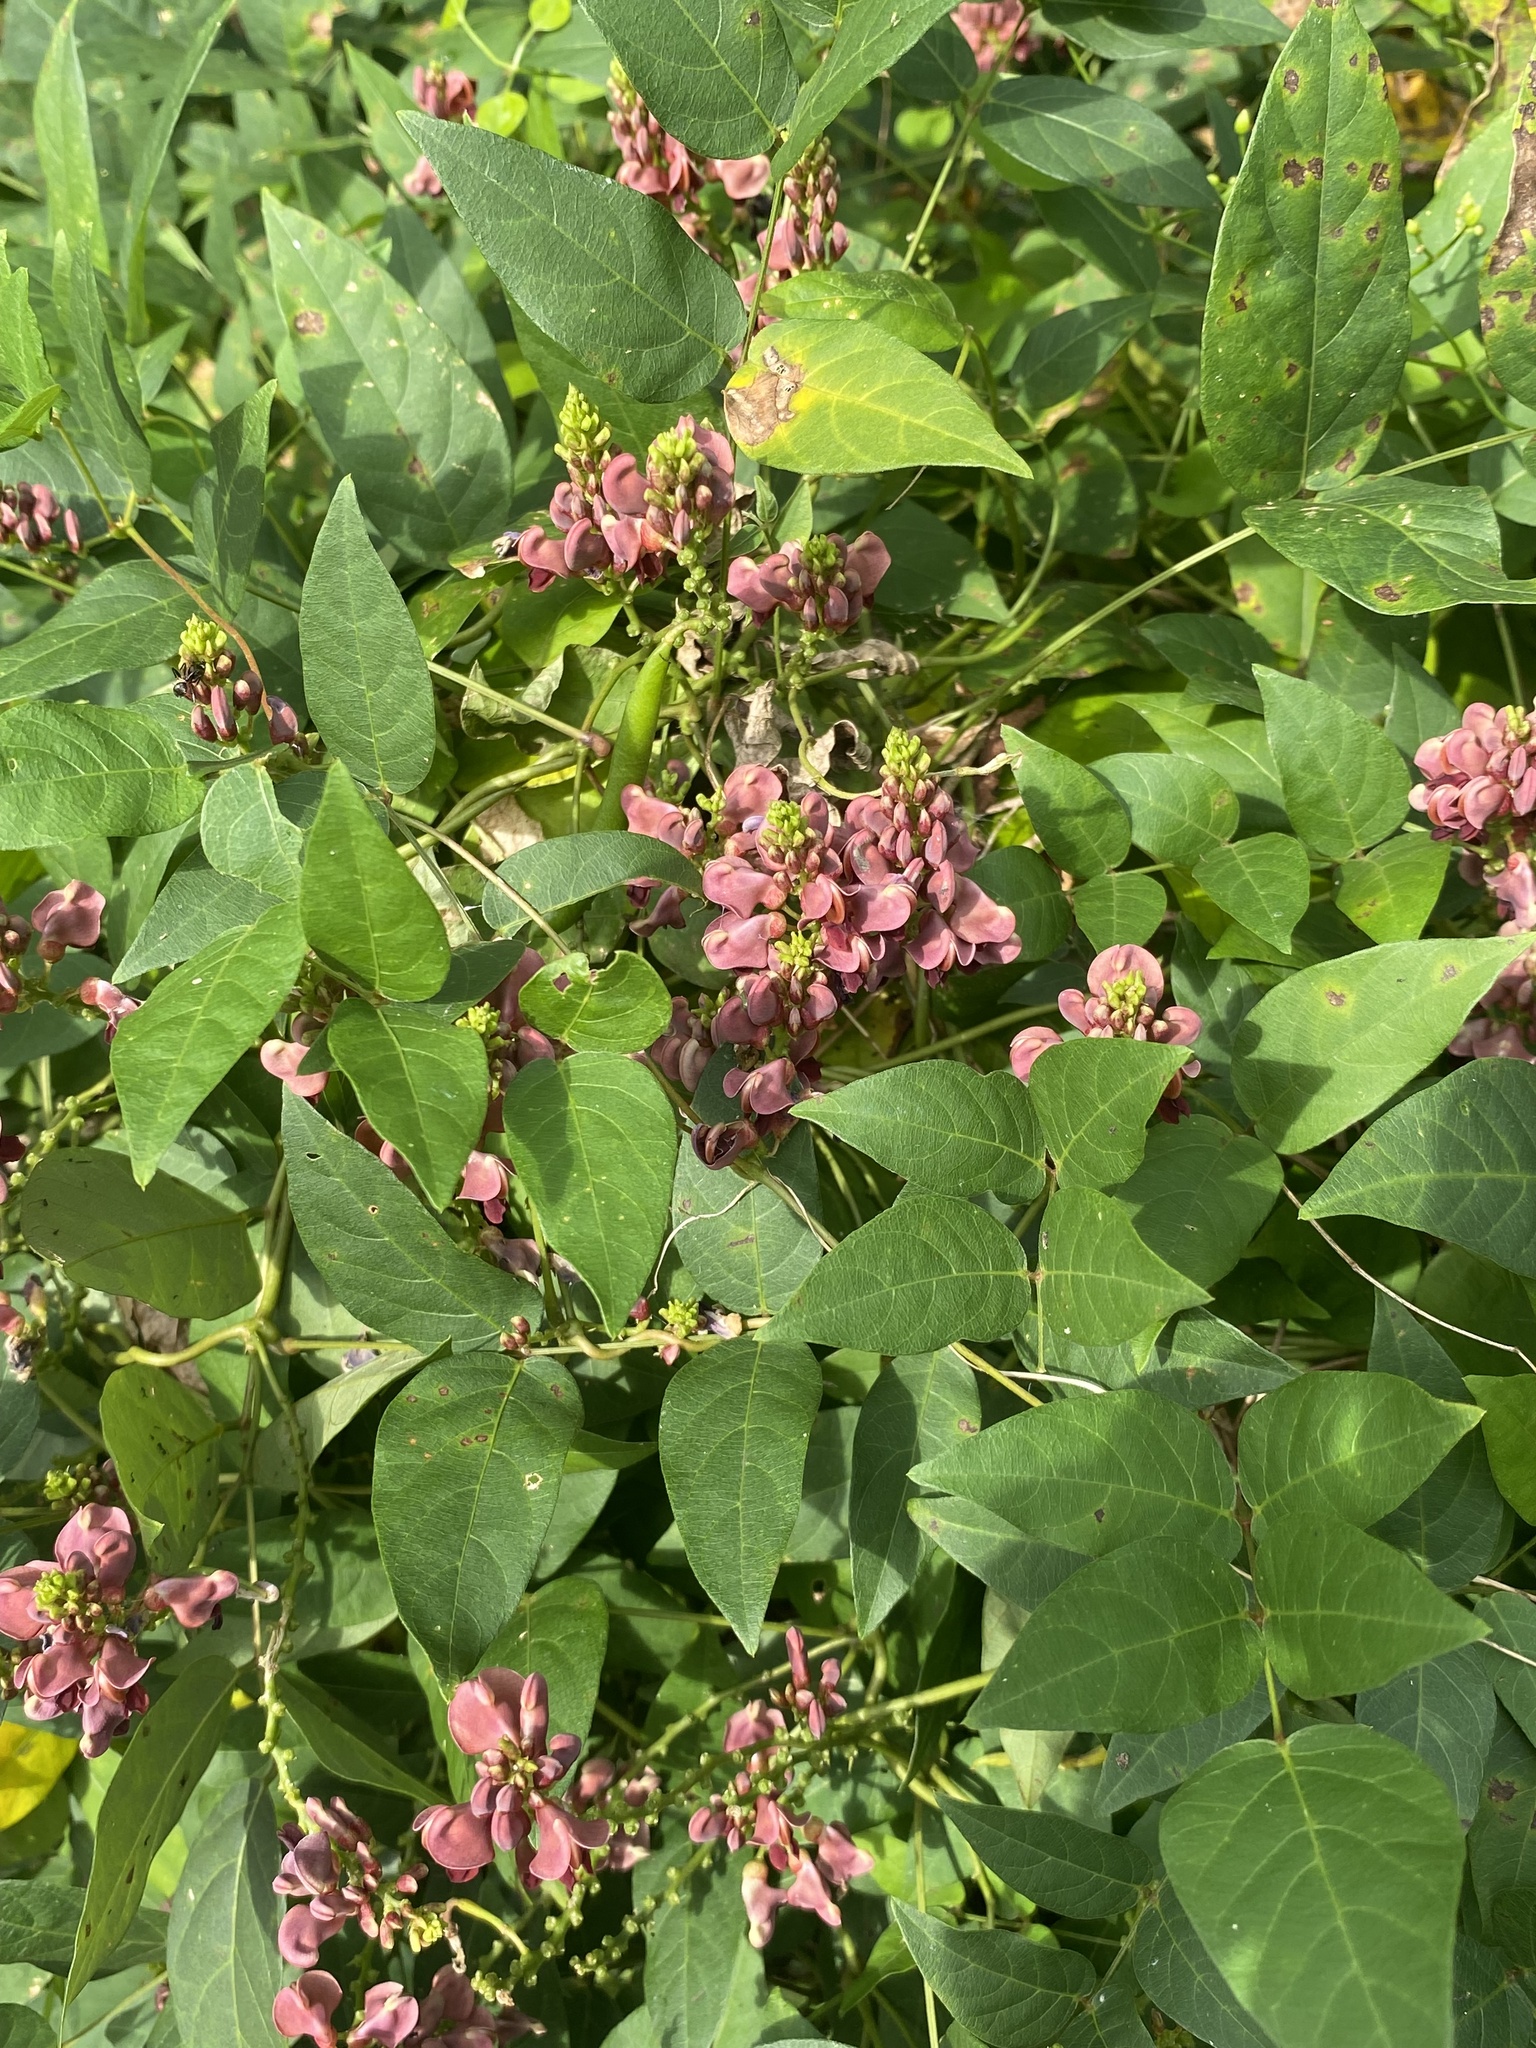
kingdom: Plantae
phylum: Tracheophyta
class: Magnoliopsida
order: Fabales
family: Fabaceae
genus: Apios
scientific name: Apios americana
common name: American potato-bean
